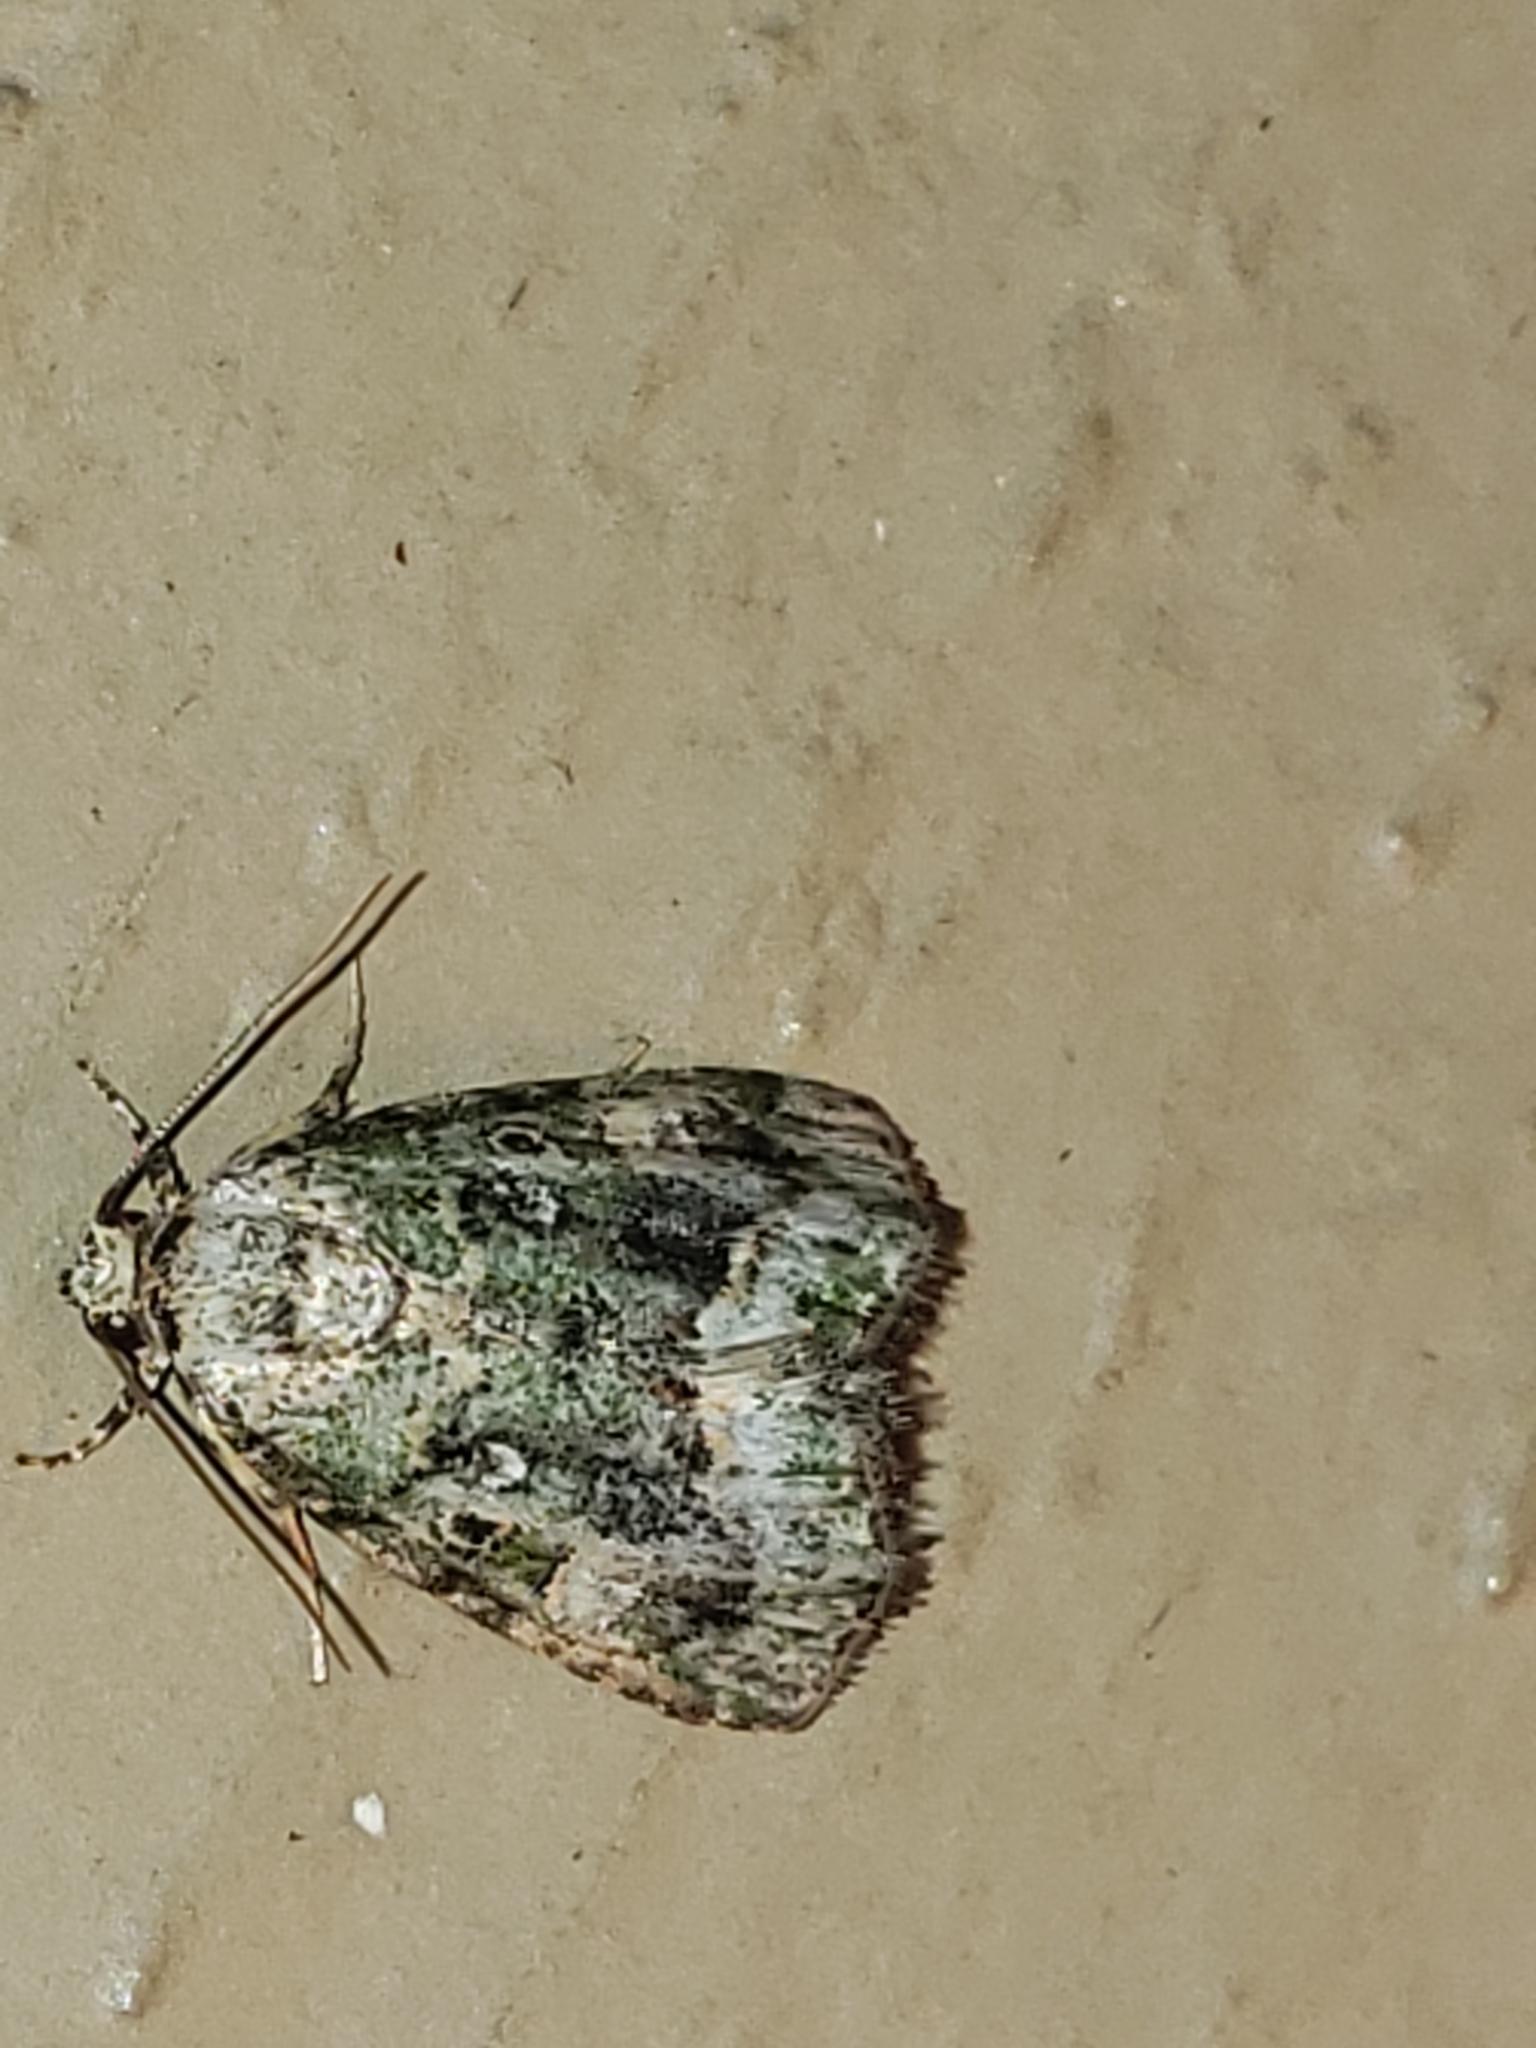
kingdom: Animalia
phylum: Arthropoda
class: Insecta
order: Lepidoptera
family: Noctuidae
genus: Lithacodia
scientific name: Lithacodia musta
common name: Small mossy glyph
